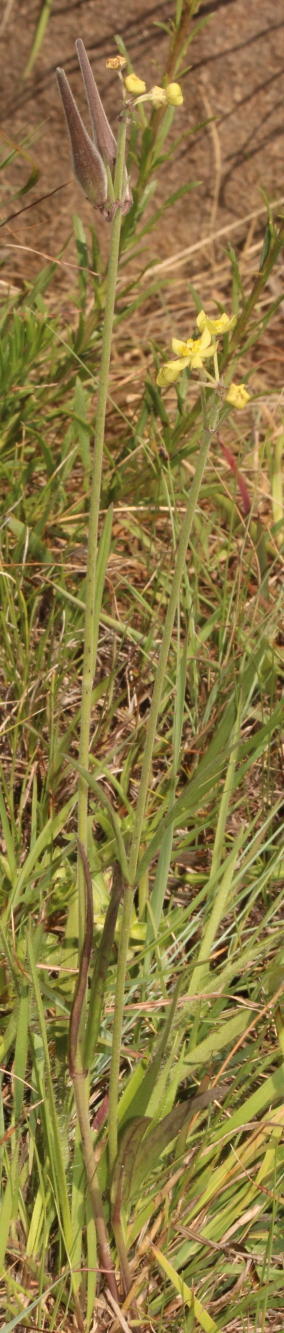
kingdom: Plantae
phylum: Tracheophyta
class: Magnoliopsida
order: Gentianales
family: Apocynaceae
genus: Aspidonepsis
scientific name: Aspidonepsis diploglossa
